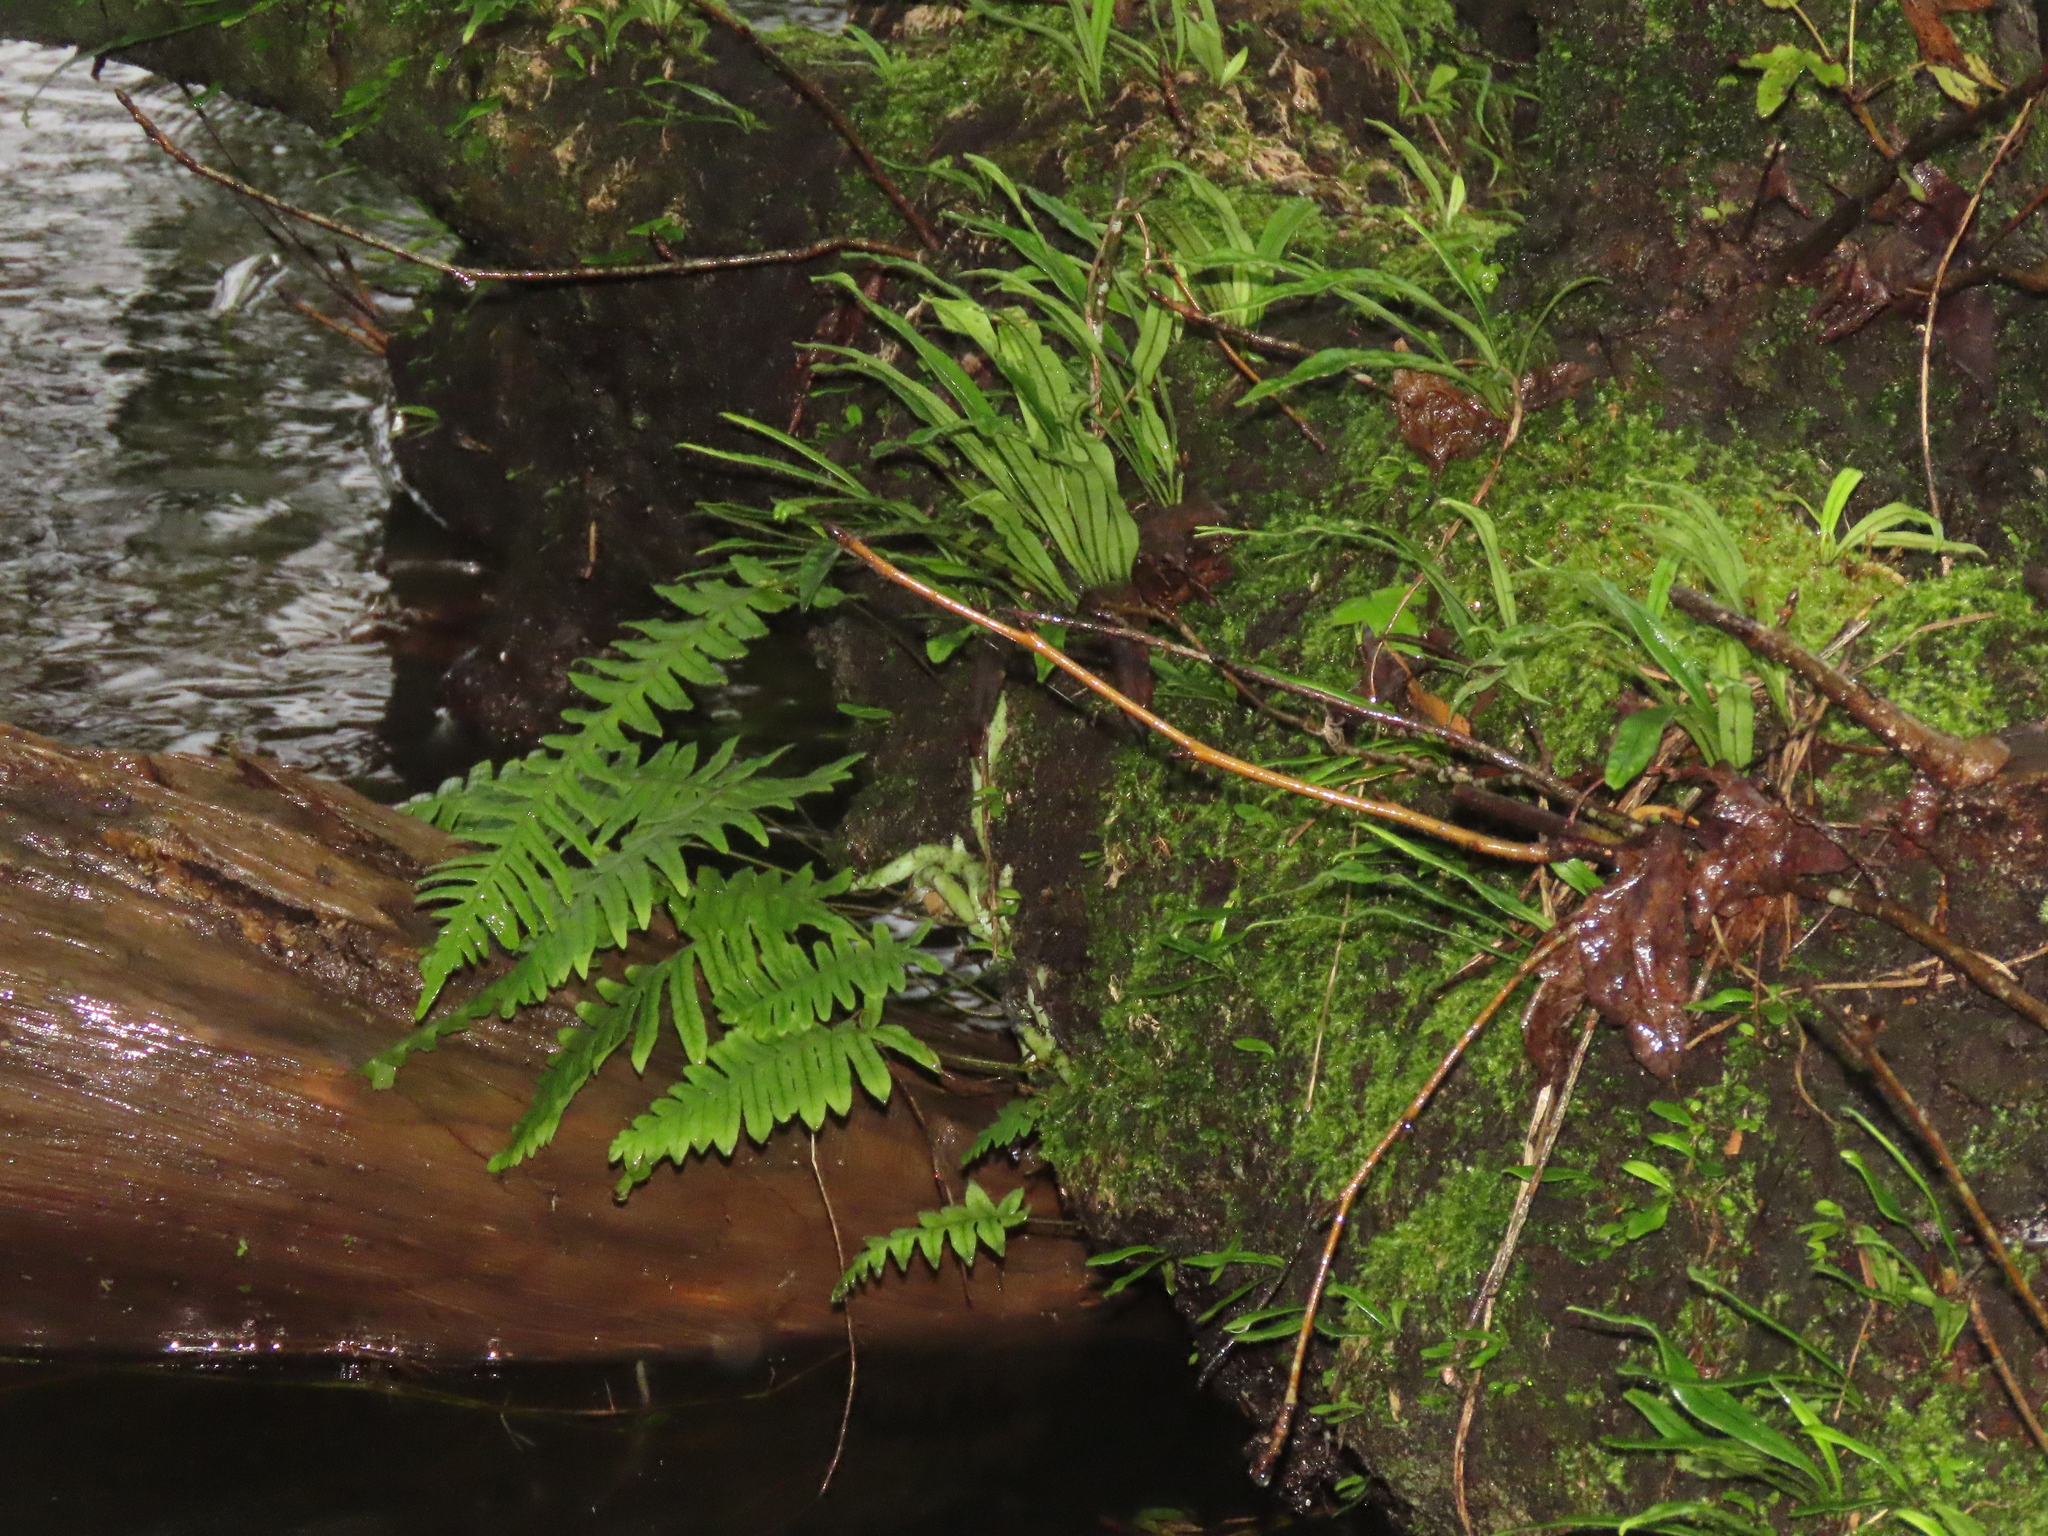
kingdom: Plantae
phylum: Tracheophyta
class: Polypodiopsida
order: Polypodiales
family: Polypodiaceae
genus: Goniophlebium
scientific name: Goniophlebium formosanum
